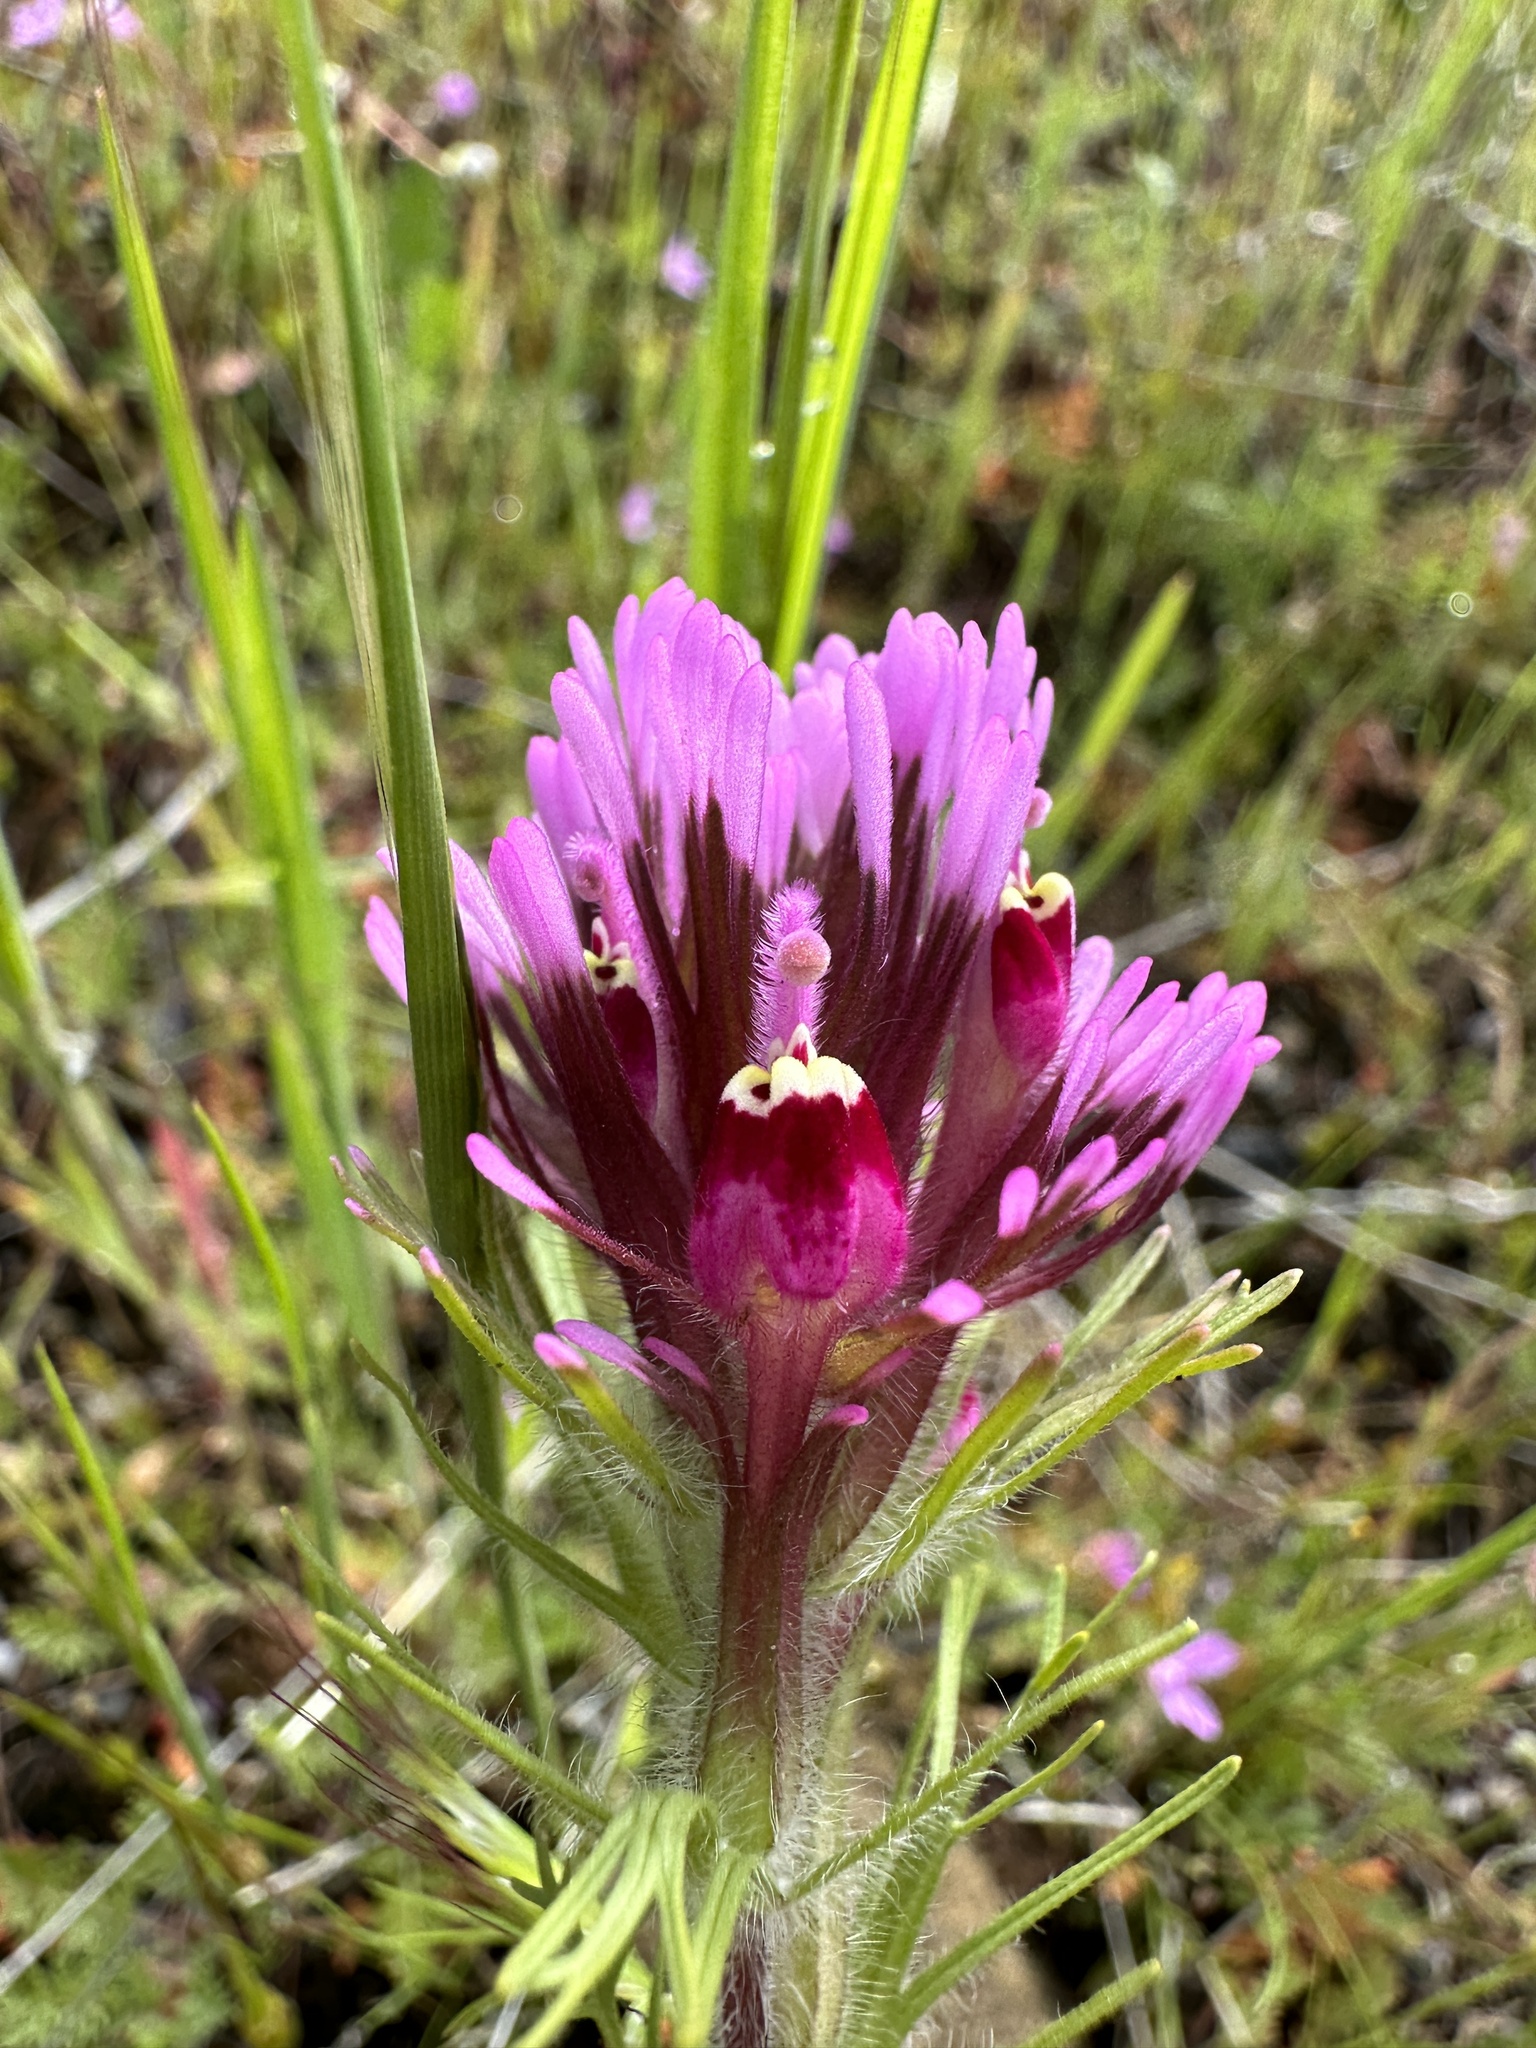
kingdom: Plantae
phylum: Tracheophyta
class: Magnoliopsida
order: Lamiales
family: Orobanchaceae
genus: Castilleja
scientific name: Castilleja exserta
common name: Purple owl-clover
